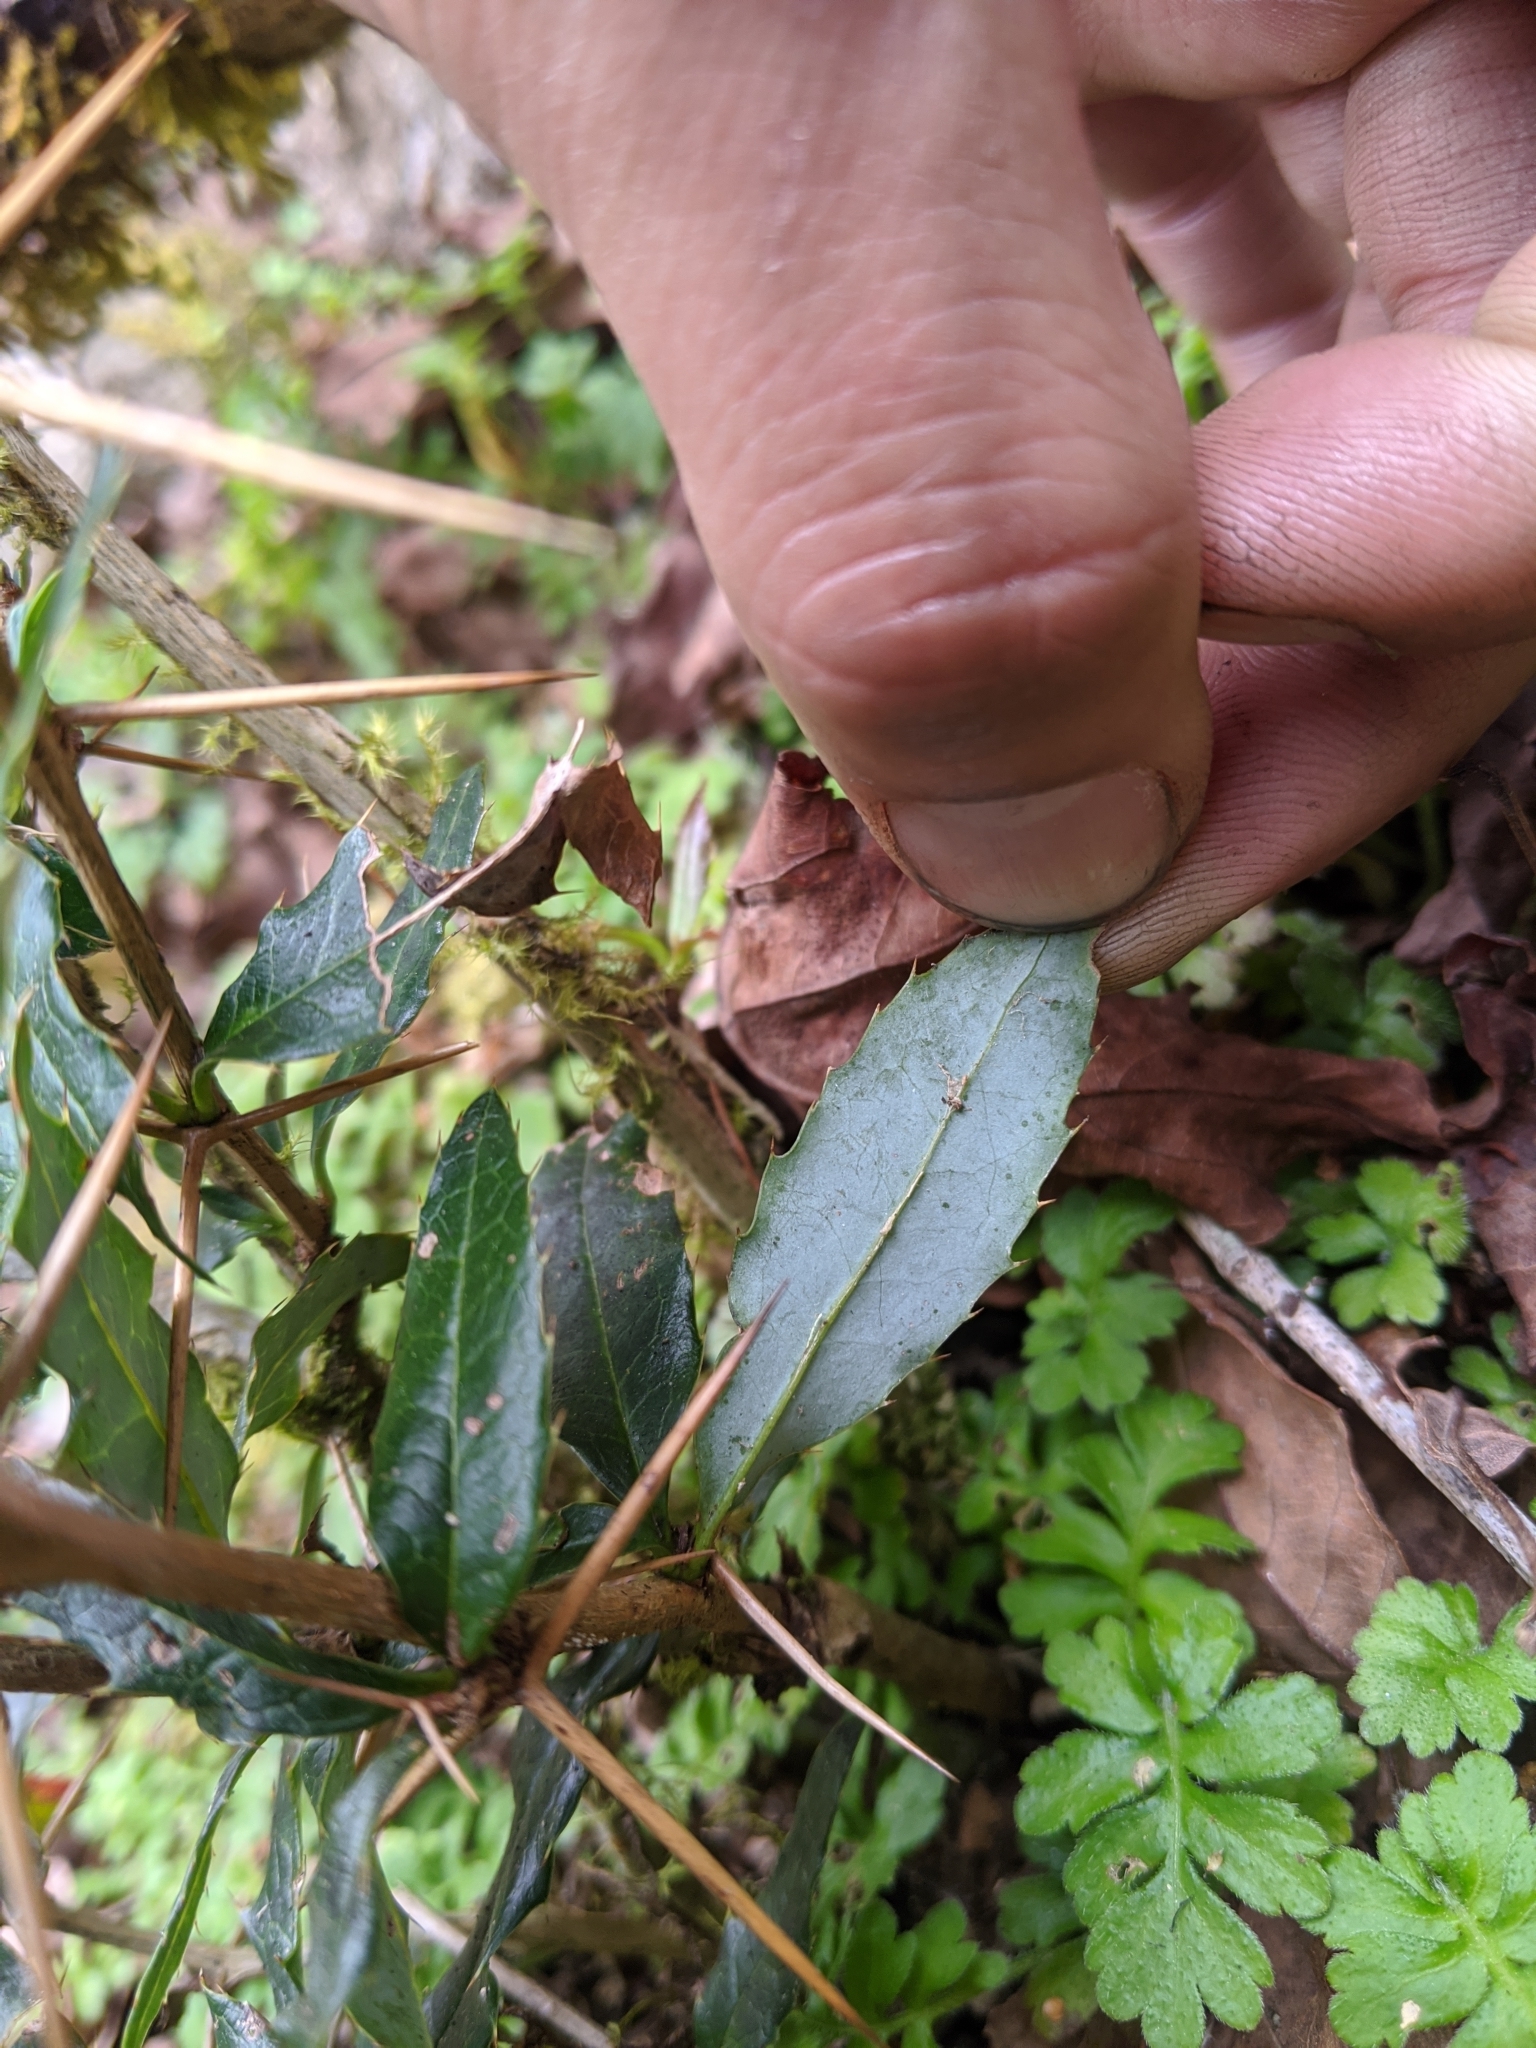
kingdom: Plantae
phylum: Tracheophyta
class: Magnoliopsida
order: Ranunculales
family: Berberidaceae
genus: Berberis
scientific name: Berberis kawakamii
